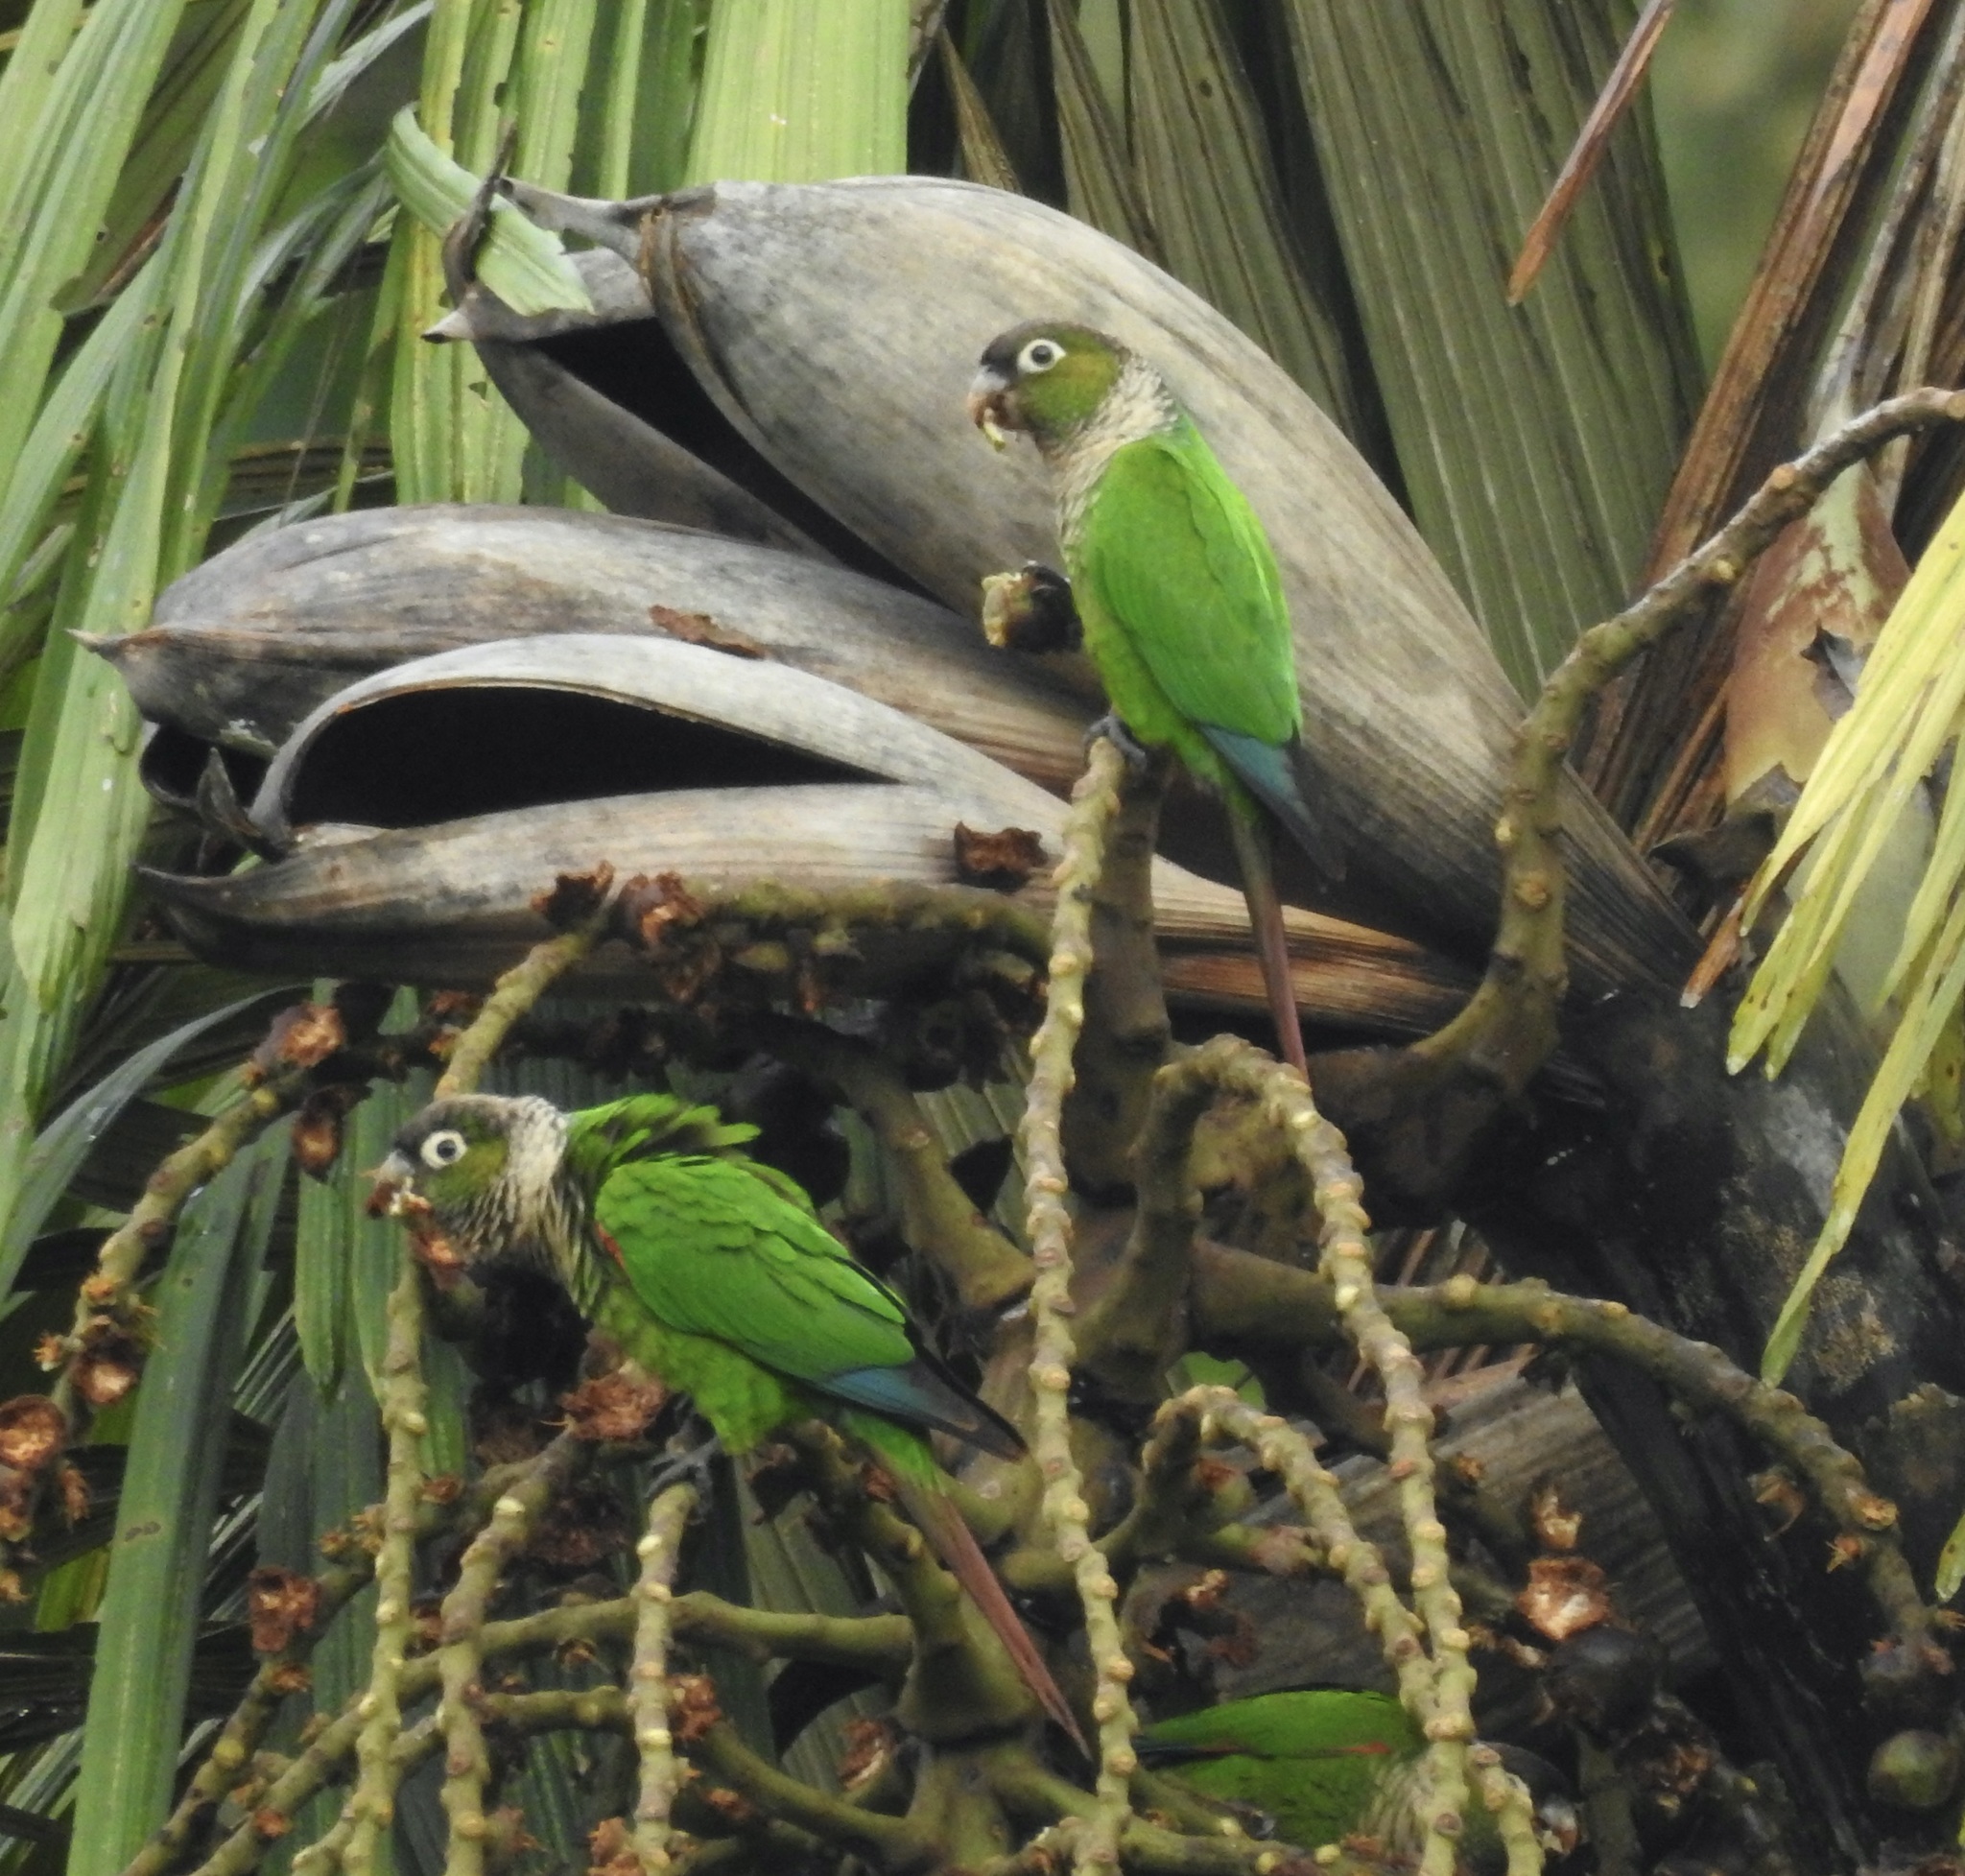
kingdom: Animalia
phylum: Chordata
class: Aves
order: Psittaciformes
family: Psittacidae
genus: Pyrrhura
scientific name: Pyrrhura melanura
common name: Maroon-tailed parakeet
